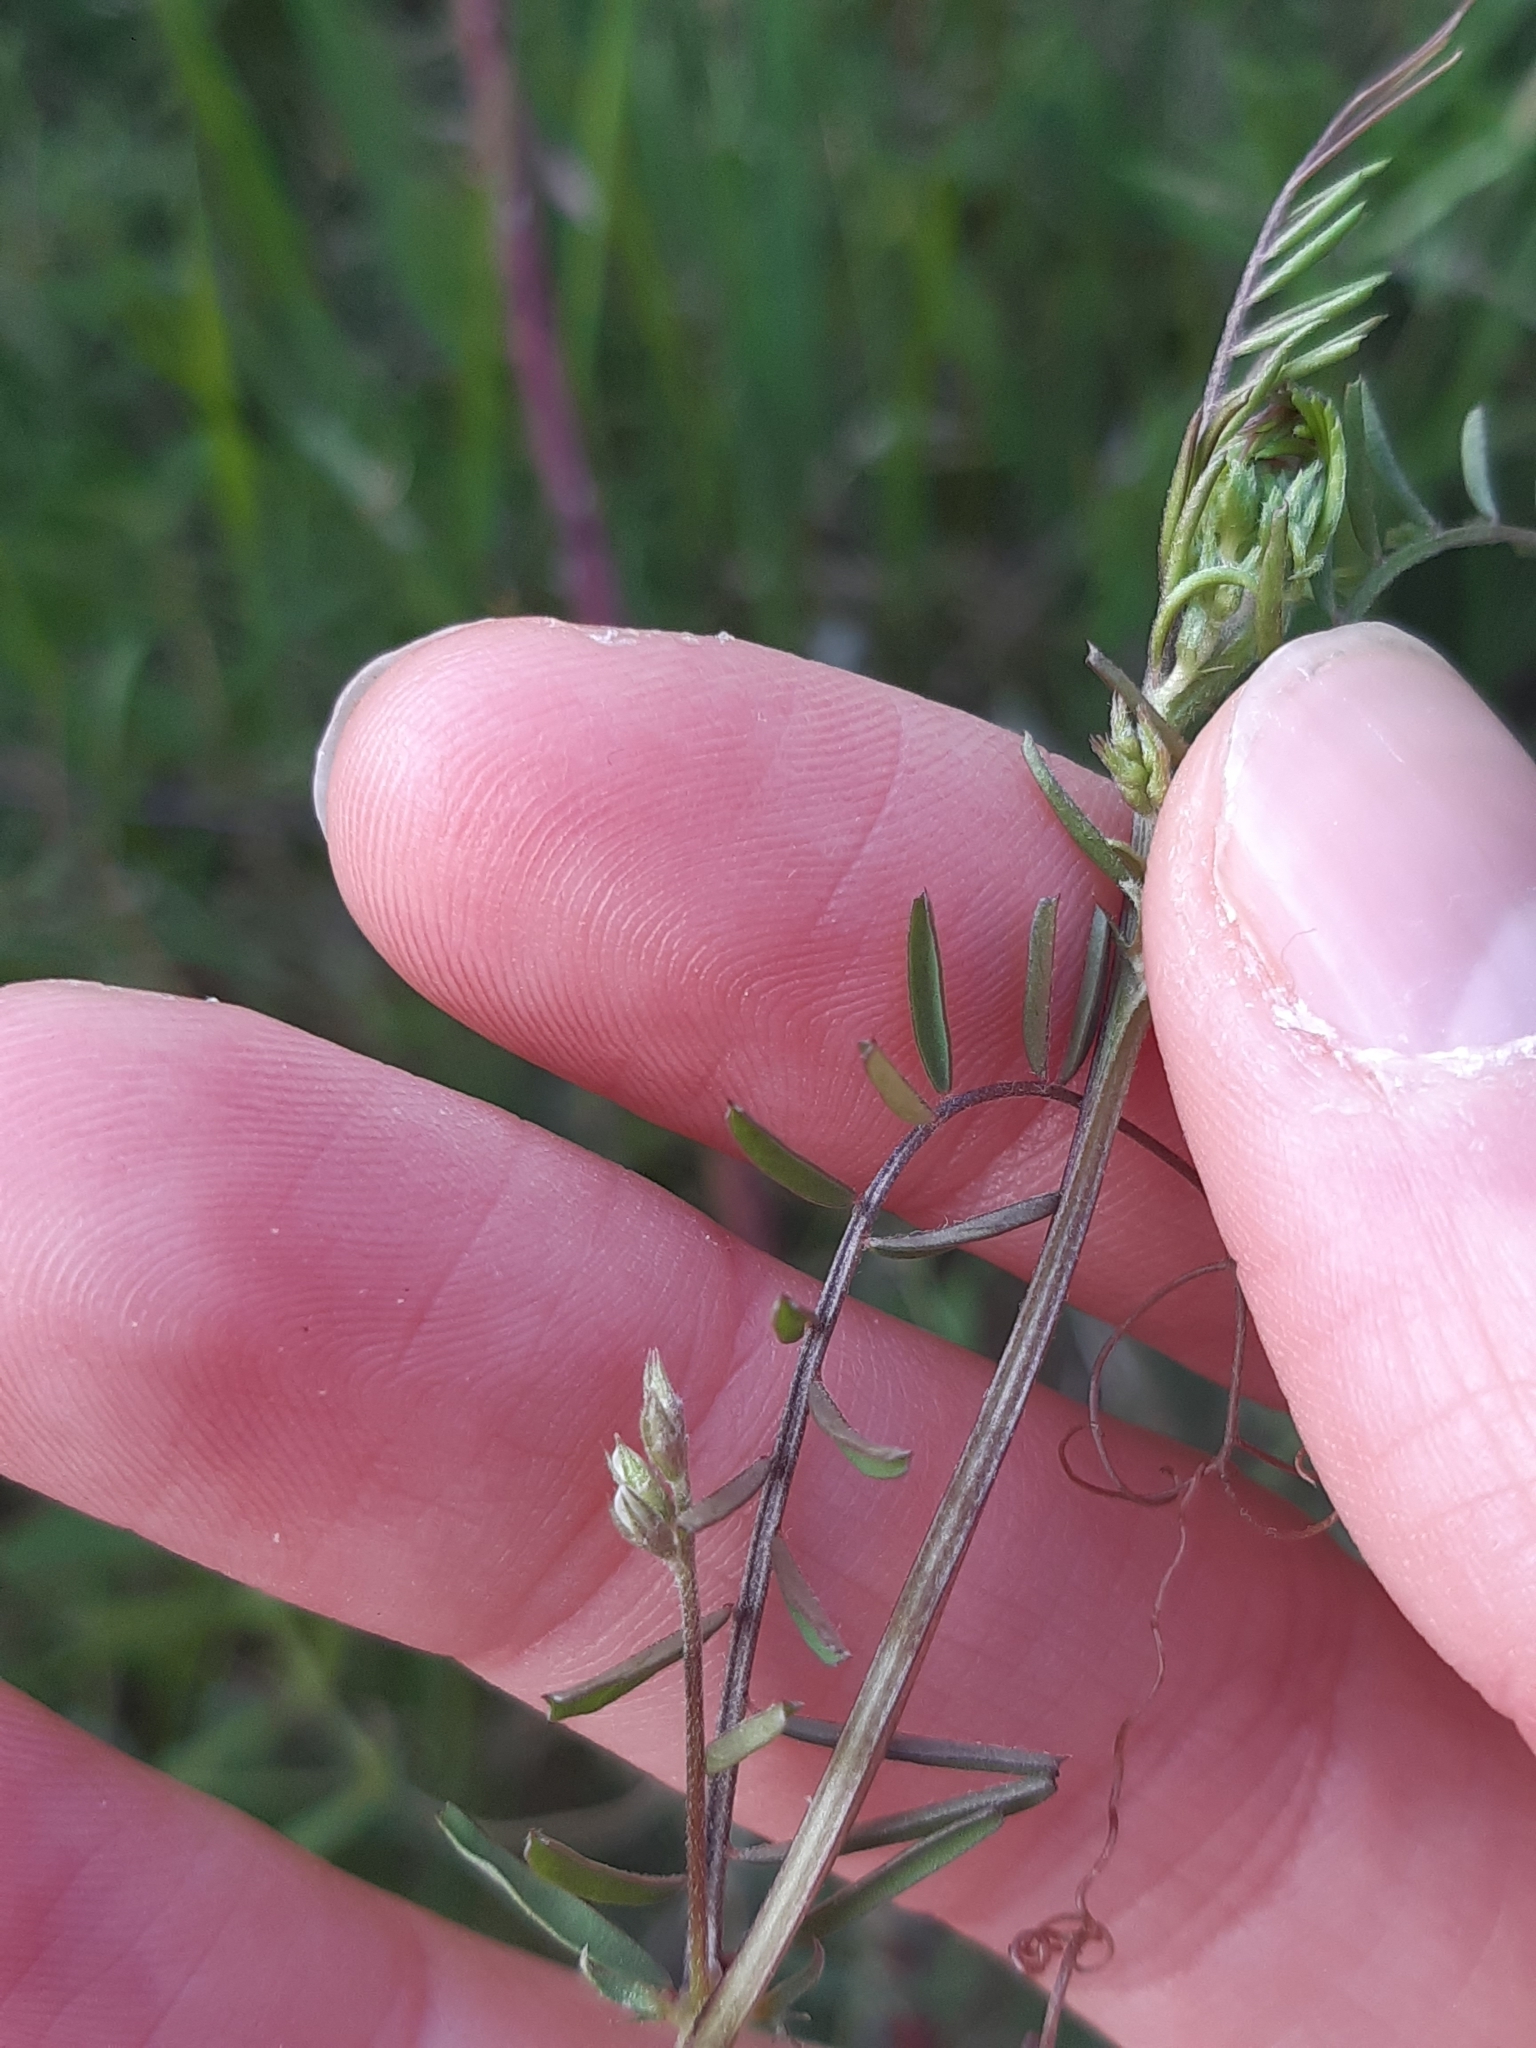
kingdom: Plantae
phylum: Tracheophyta
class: Magnoliopsida
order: Fabales
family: Fabaceae
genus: Vicia
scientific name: Vicia hirsuta
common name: Tiny vetch
